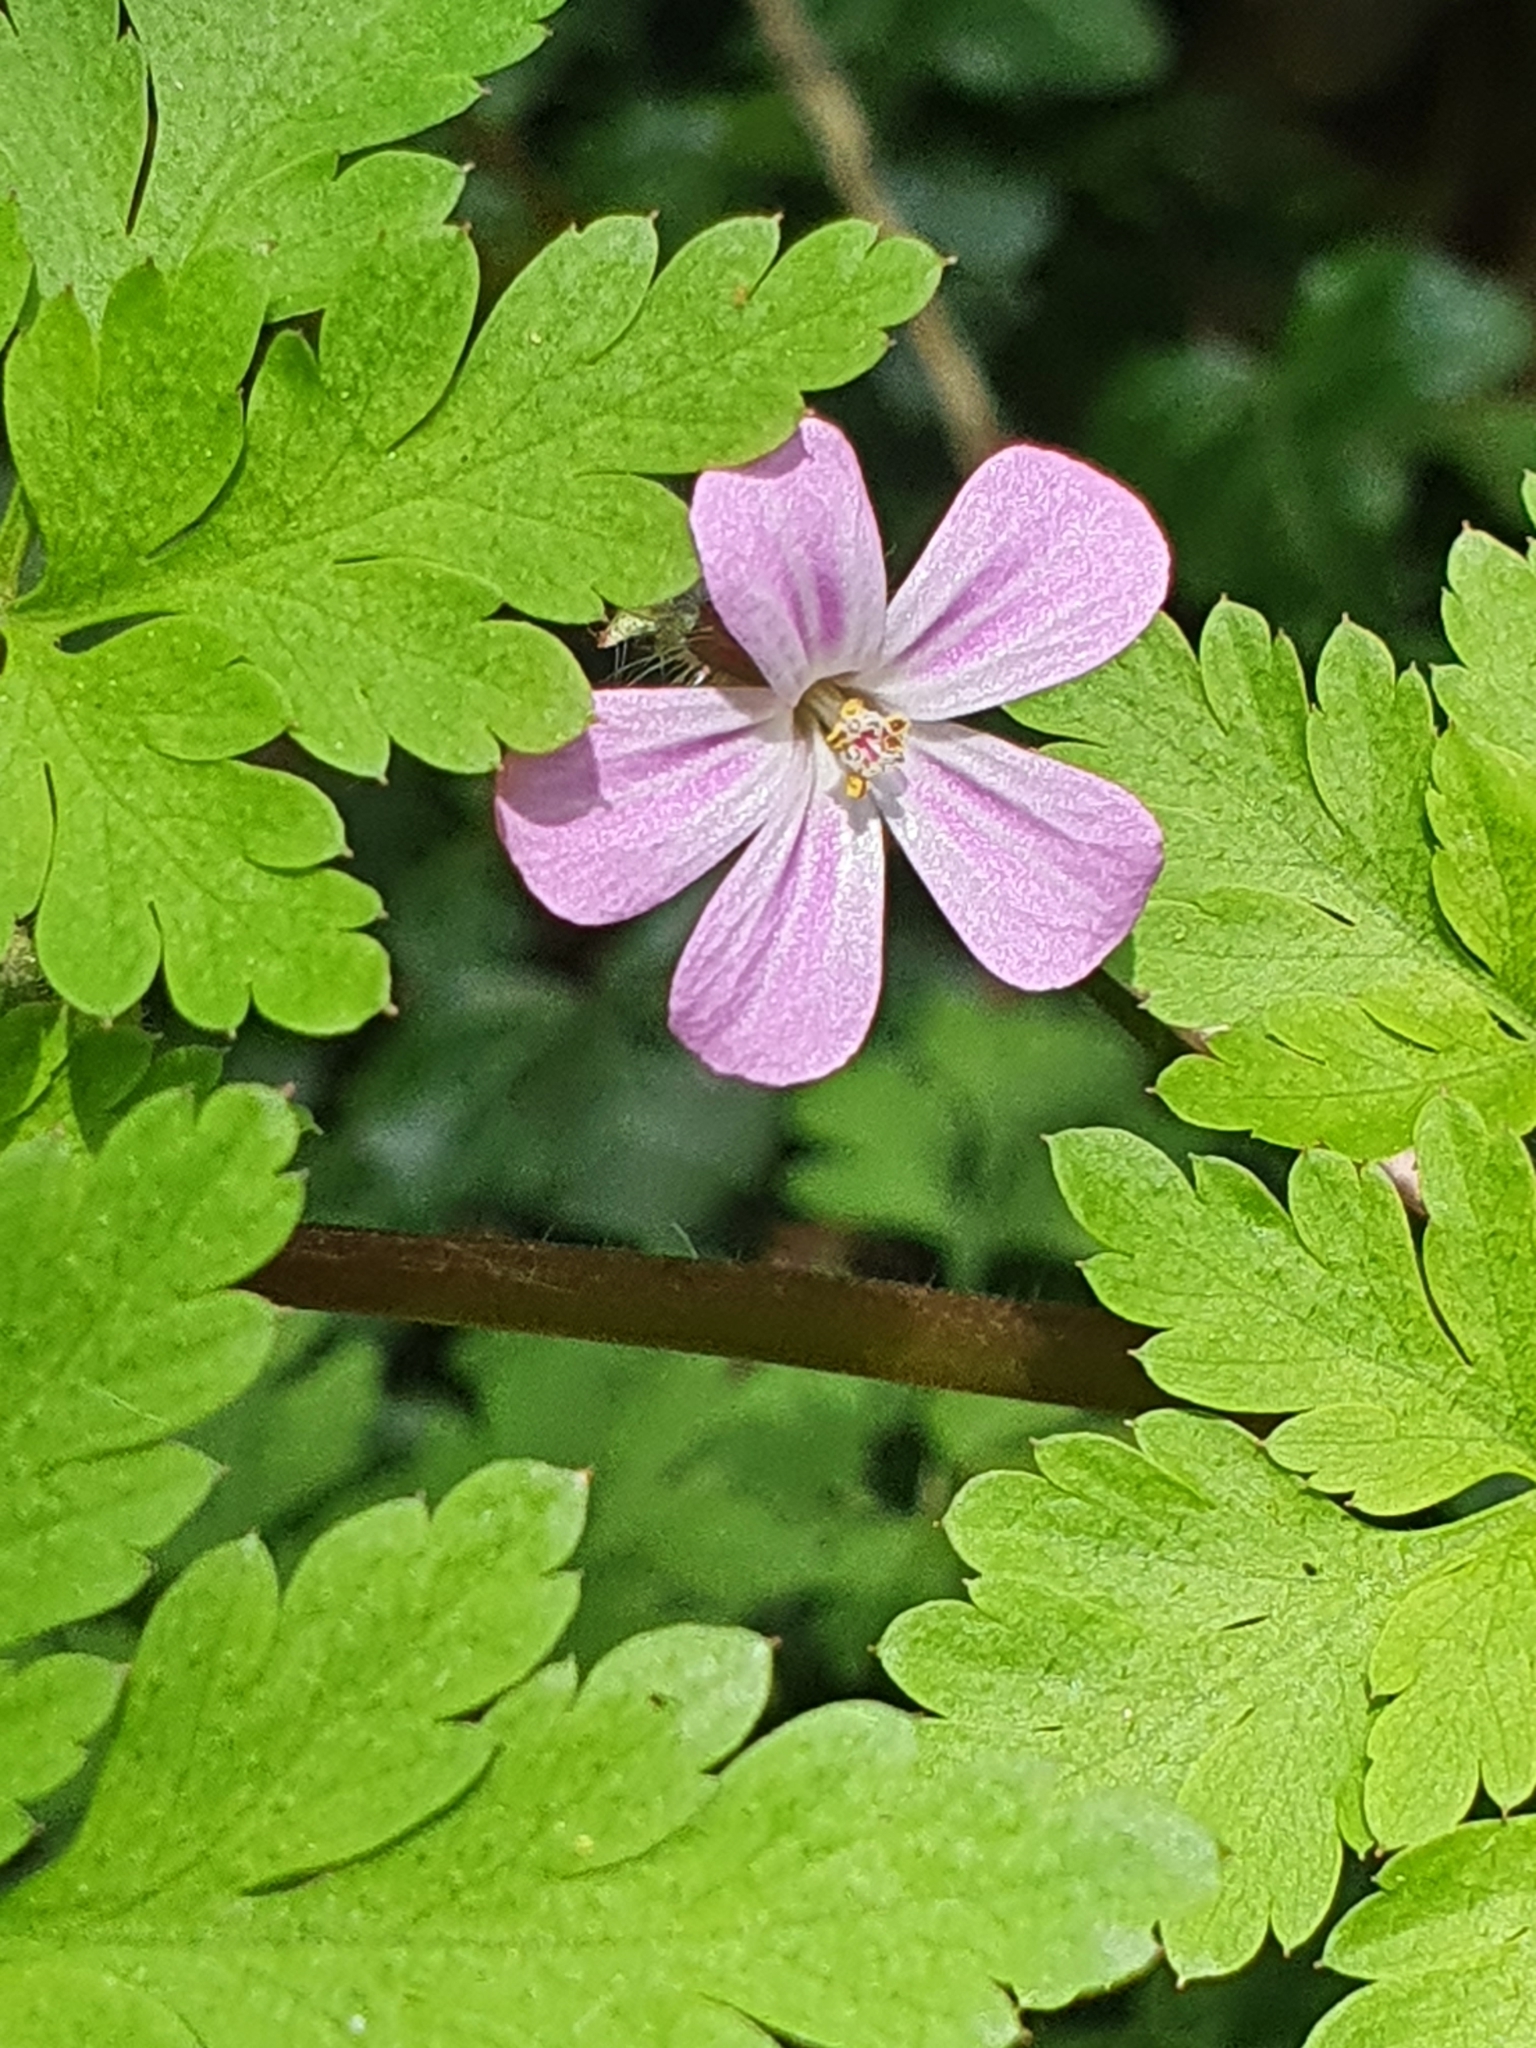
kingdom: Plantae
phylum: Tracheophyta
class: Magnoliopsida
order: Geraniales
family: Geraniaceae
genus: Geranium
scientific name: Geranium robertianum
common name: Herb-robert
